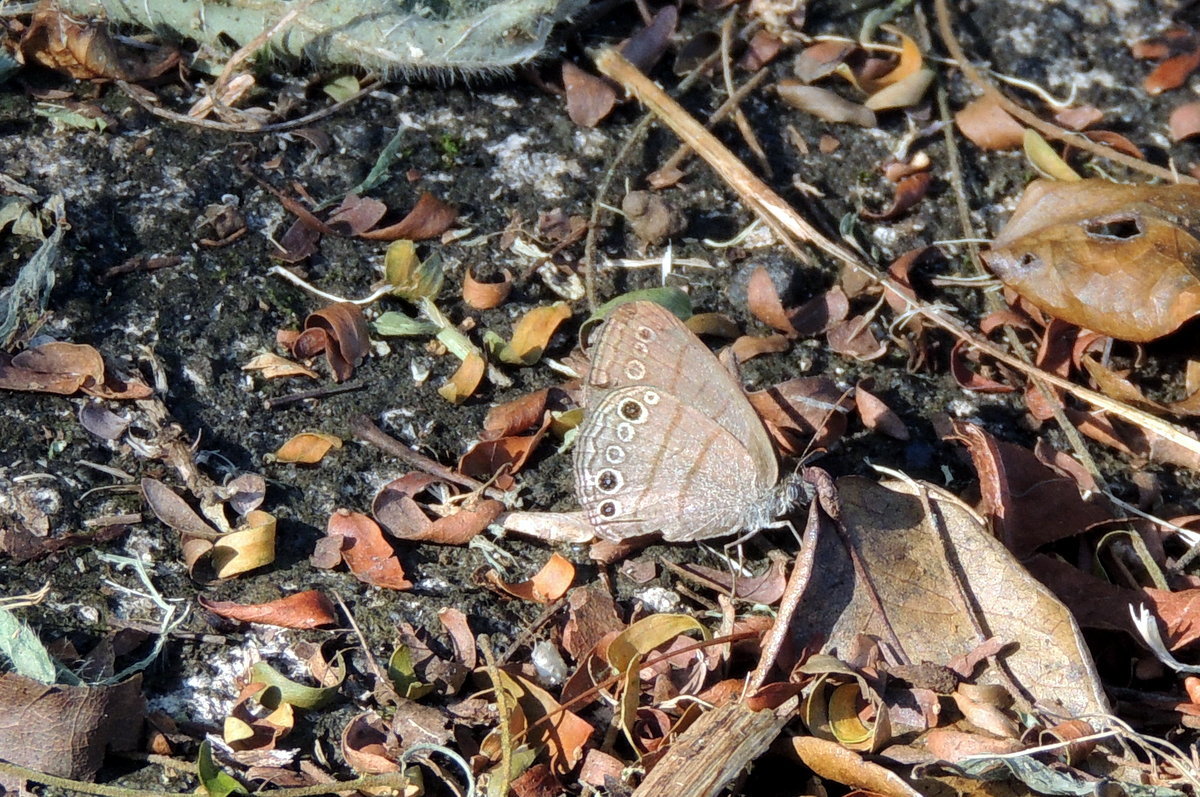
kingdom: Animalia
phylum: Arthropoda
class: Insecta
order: Lepidoptera
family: Nymphalidae
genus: Hermeuptychia
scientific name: Hermeuptychia hermes
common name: Hermes satyr
